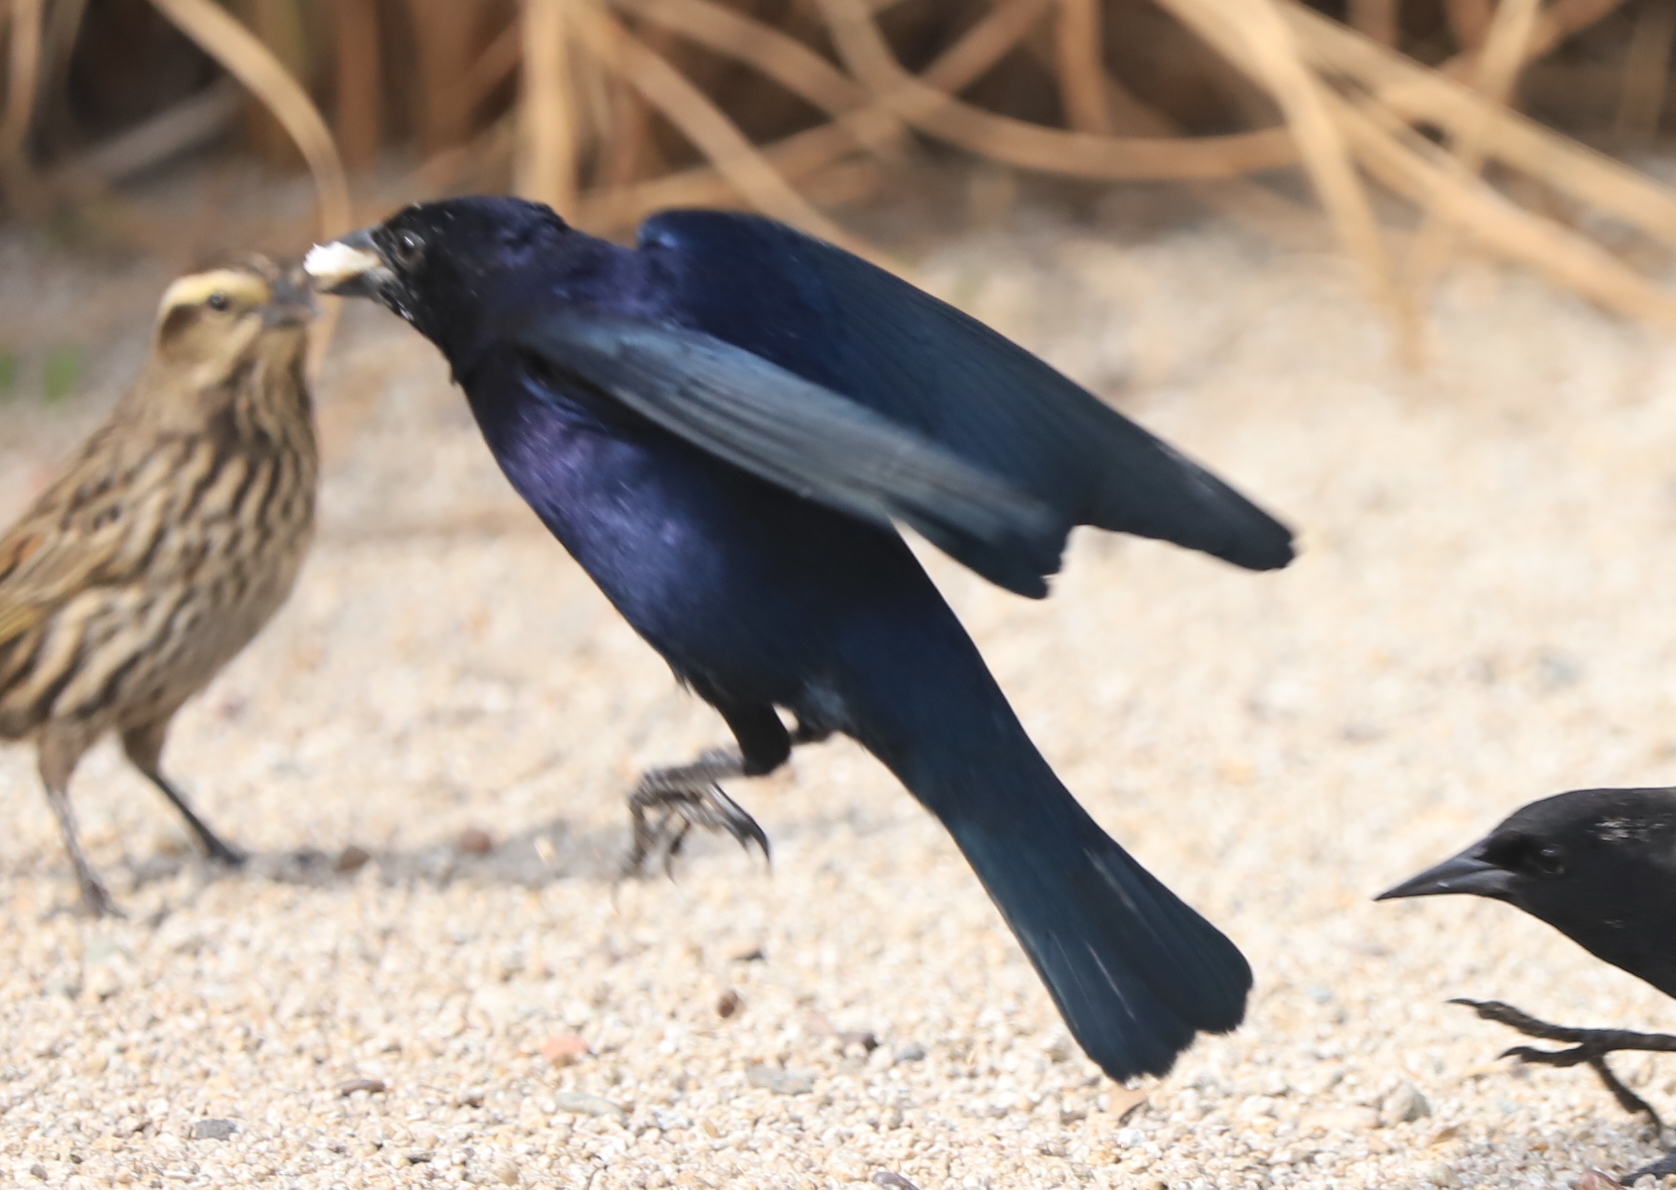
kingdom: Animalia
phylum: Chordata
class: Aves
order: Passeriformes
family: Icteridae
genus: Molothrus
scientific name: Molothrus bonariensis
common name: Shiny cowbird
